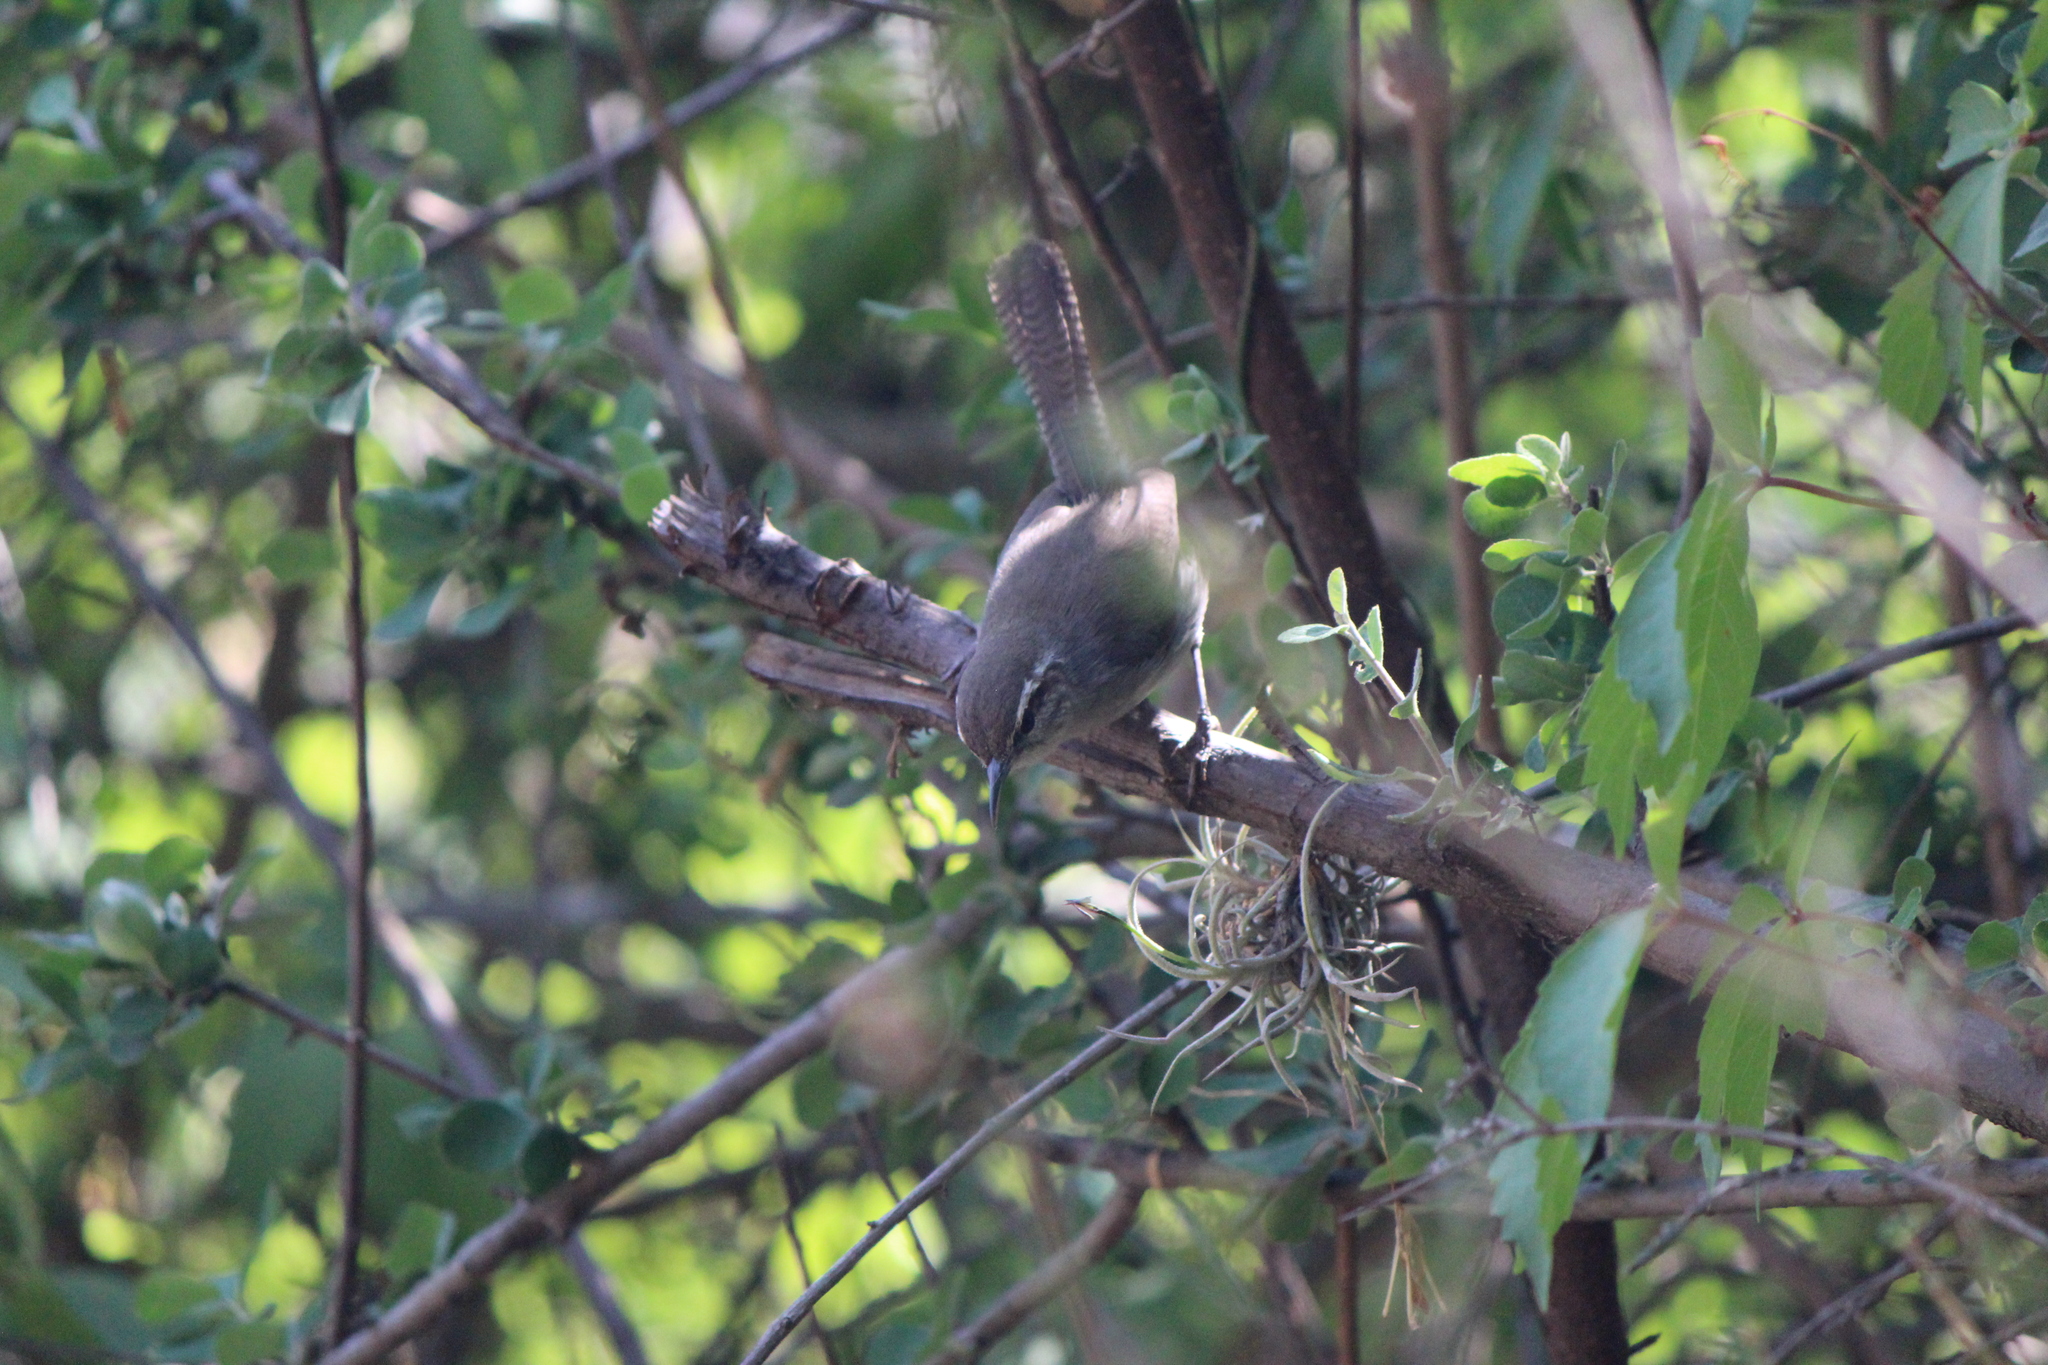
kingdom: Animalia
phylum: Chordata
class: Aves
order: Passeriformes
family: Troglodytidae
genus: Thryomanes
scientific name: Thryomanes bewickii
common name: Bewick's wren
